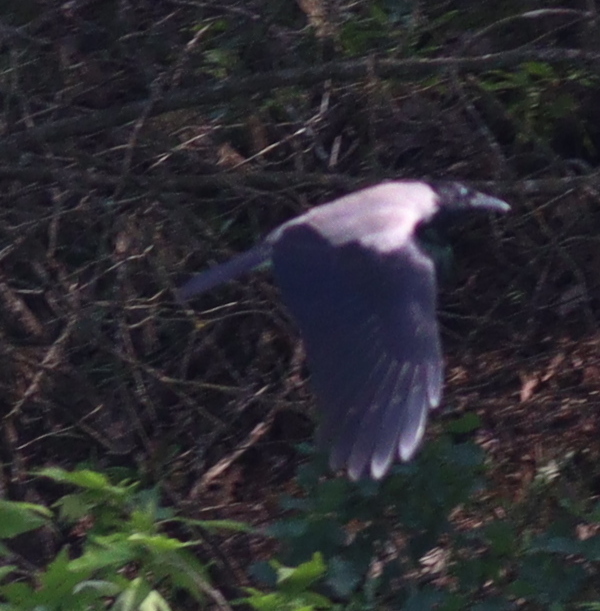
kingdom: Animalia
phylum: Chordata
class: Aves
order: Passeriformes
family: Corvidae
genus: Corvus
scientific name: Corvus cornix
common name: Hooded crow
